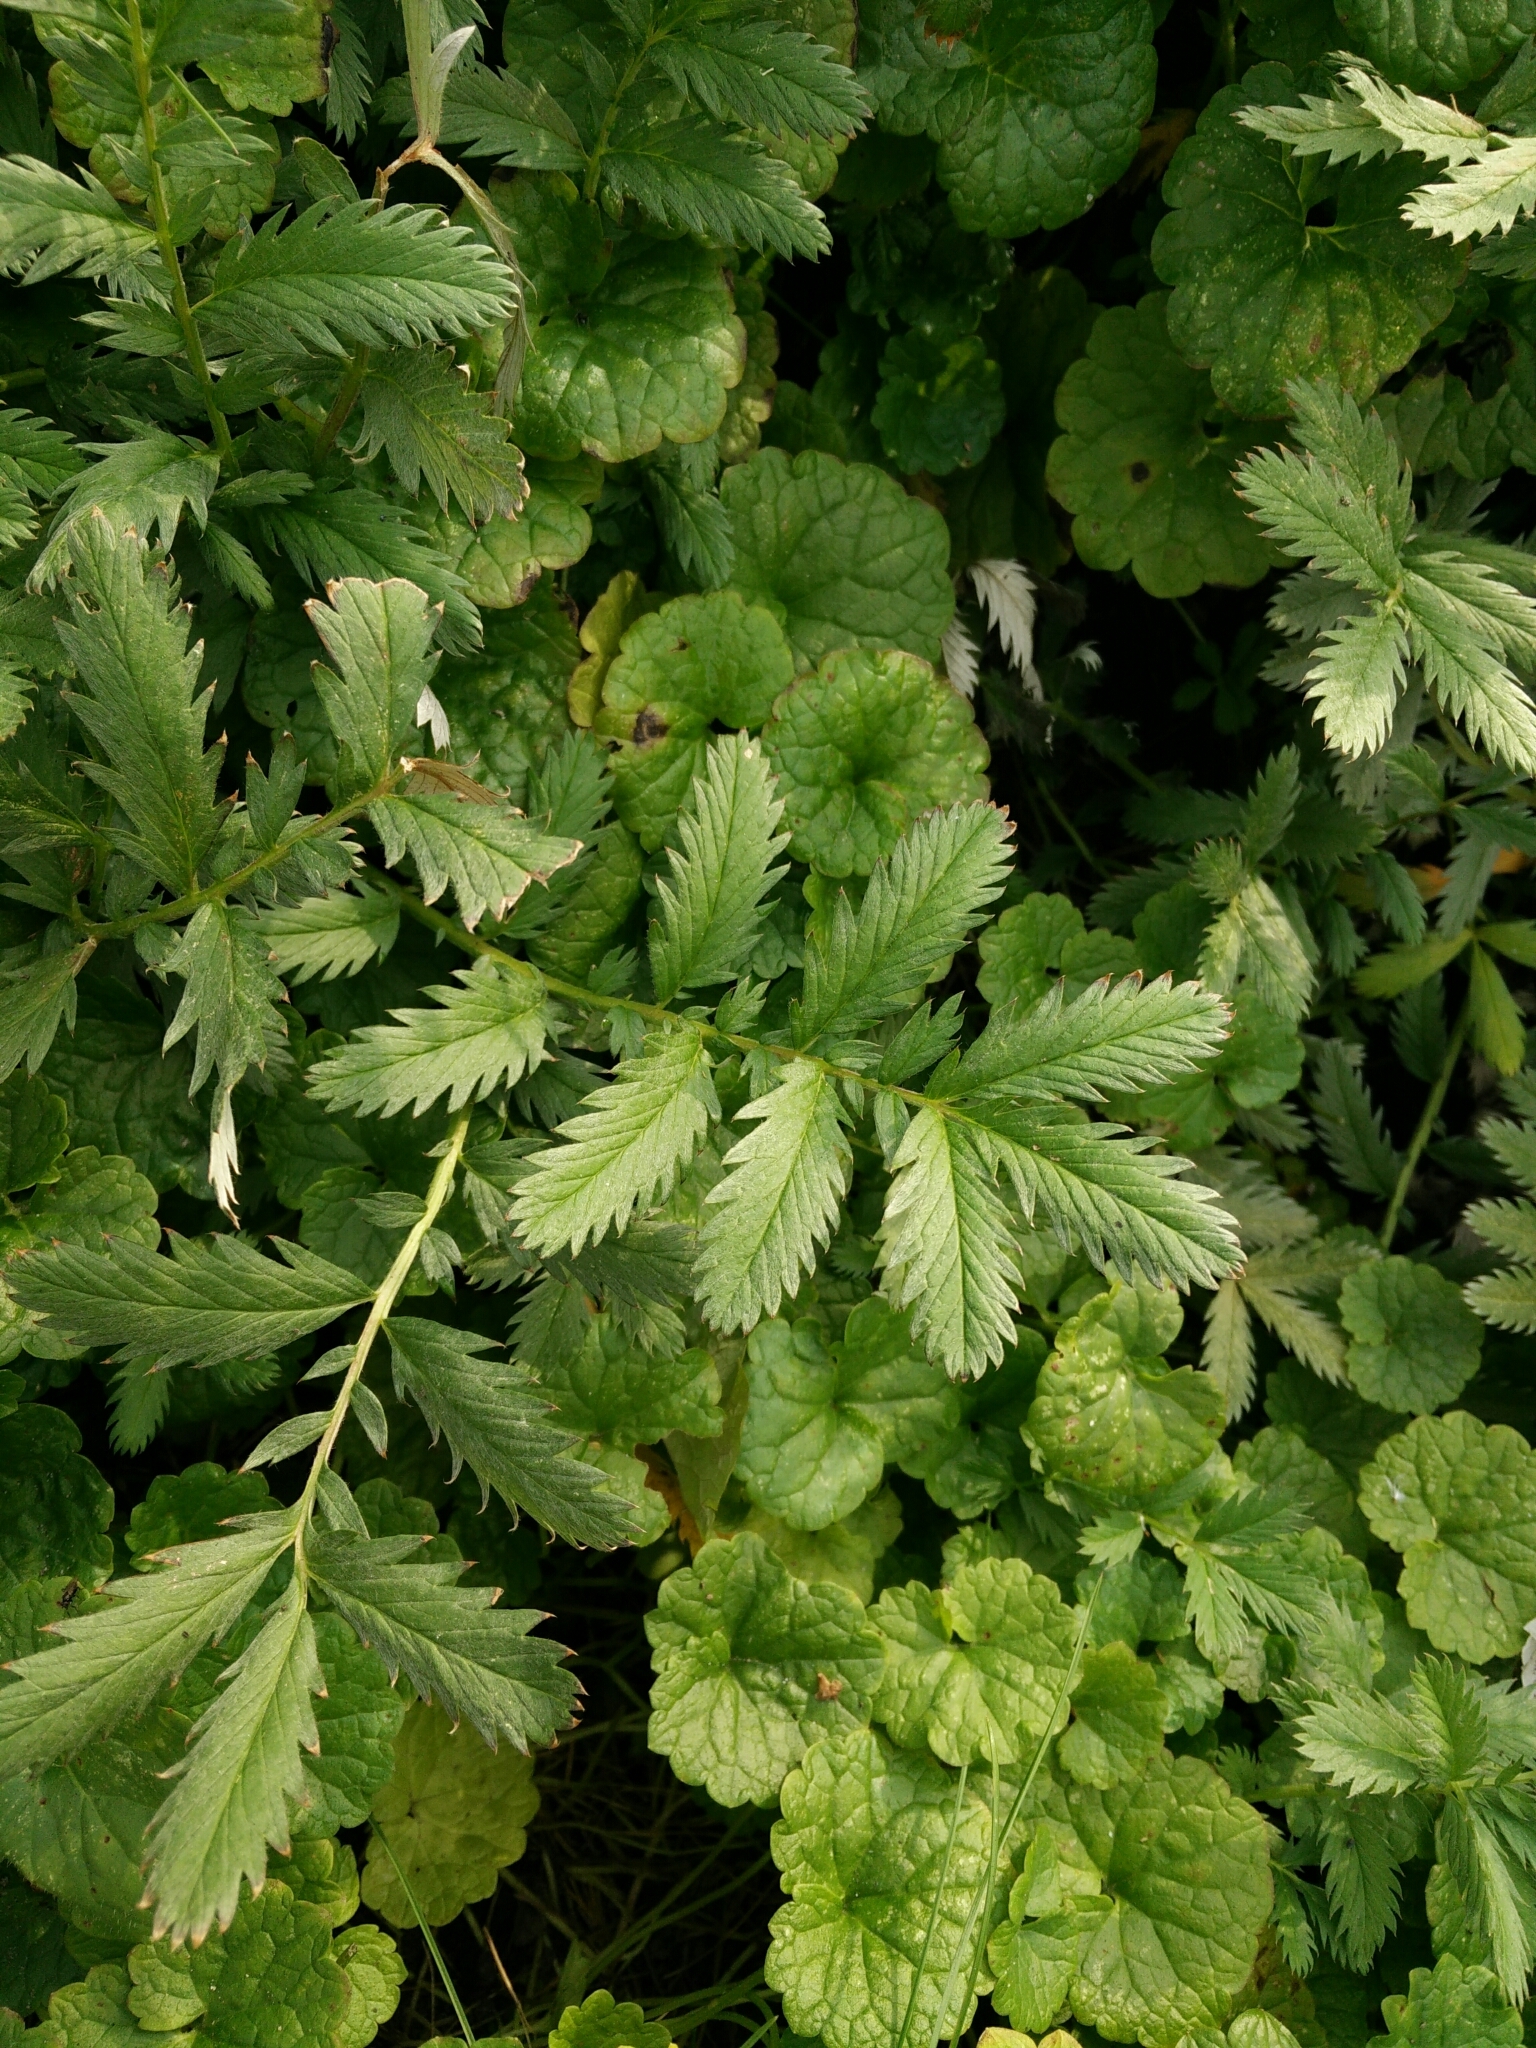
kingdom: Plantae
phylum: Tracheophyta
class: Magnoliopsida
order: Rosales
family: Rosaceae
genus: Argentina
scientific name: Argentina anserina
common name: Common silverweed
